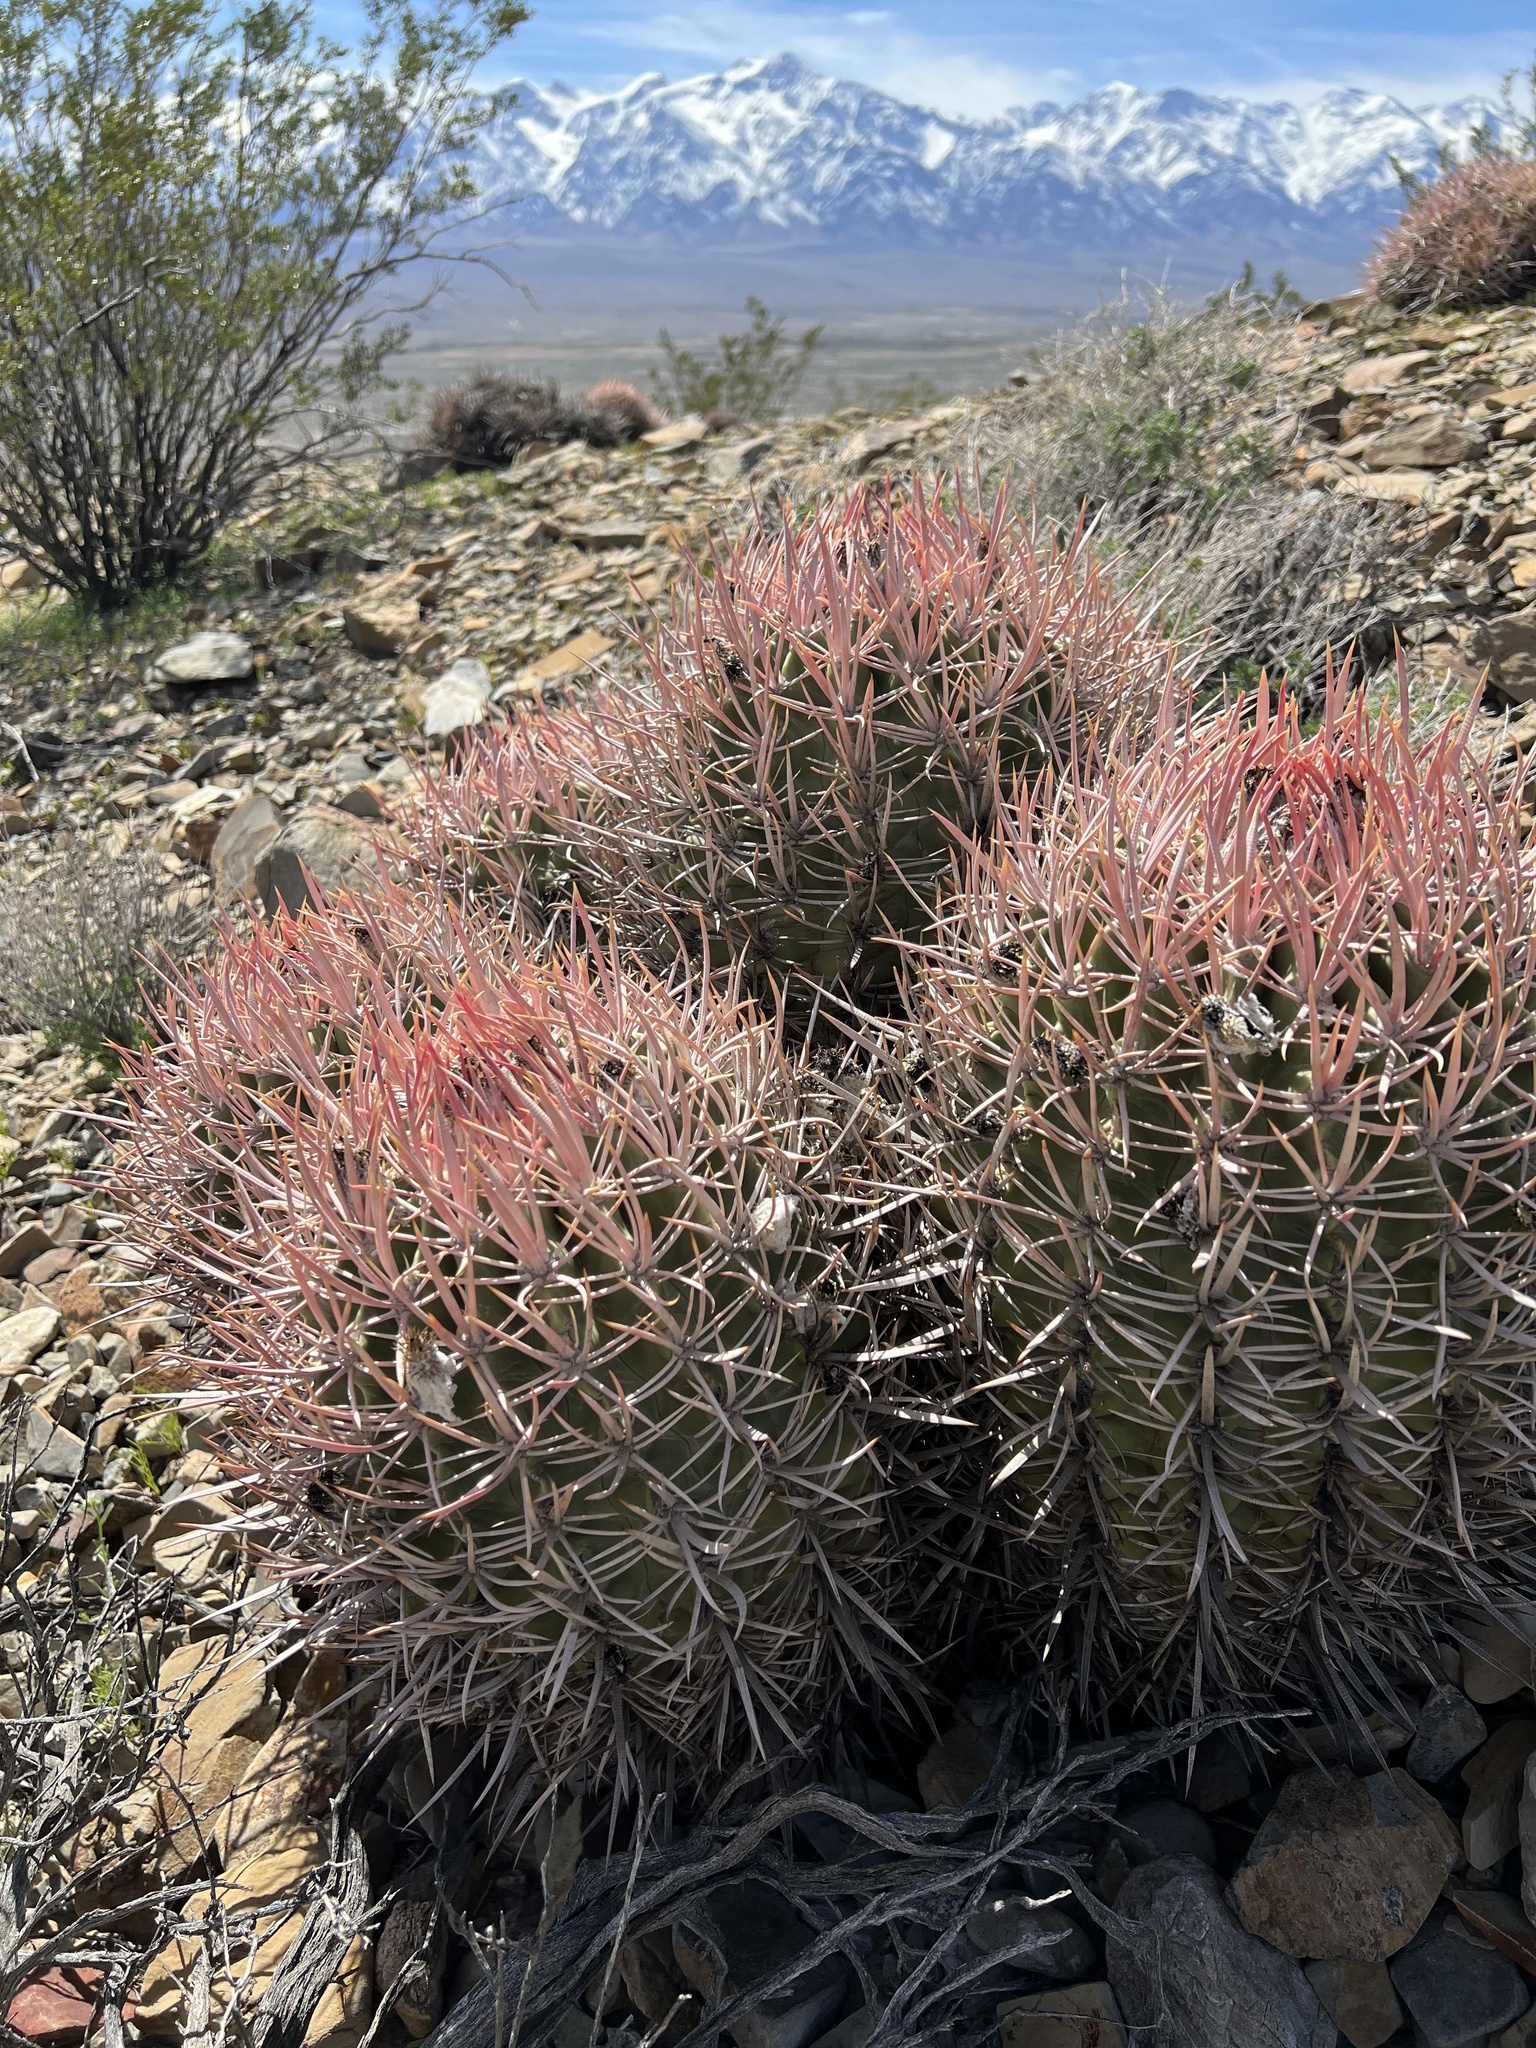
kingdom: Plantae
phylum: Tracheophyta
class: Magnoliopsida
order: Caryophyllales
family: Cactaceae
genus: Echinocactus
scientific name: Echinocactus polycephalus
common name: Cottontop cactus
